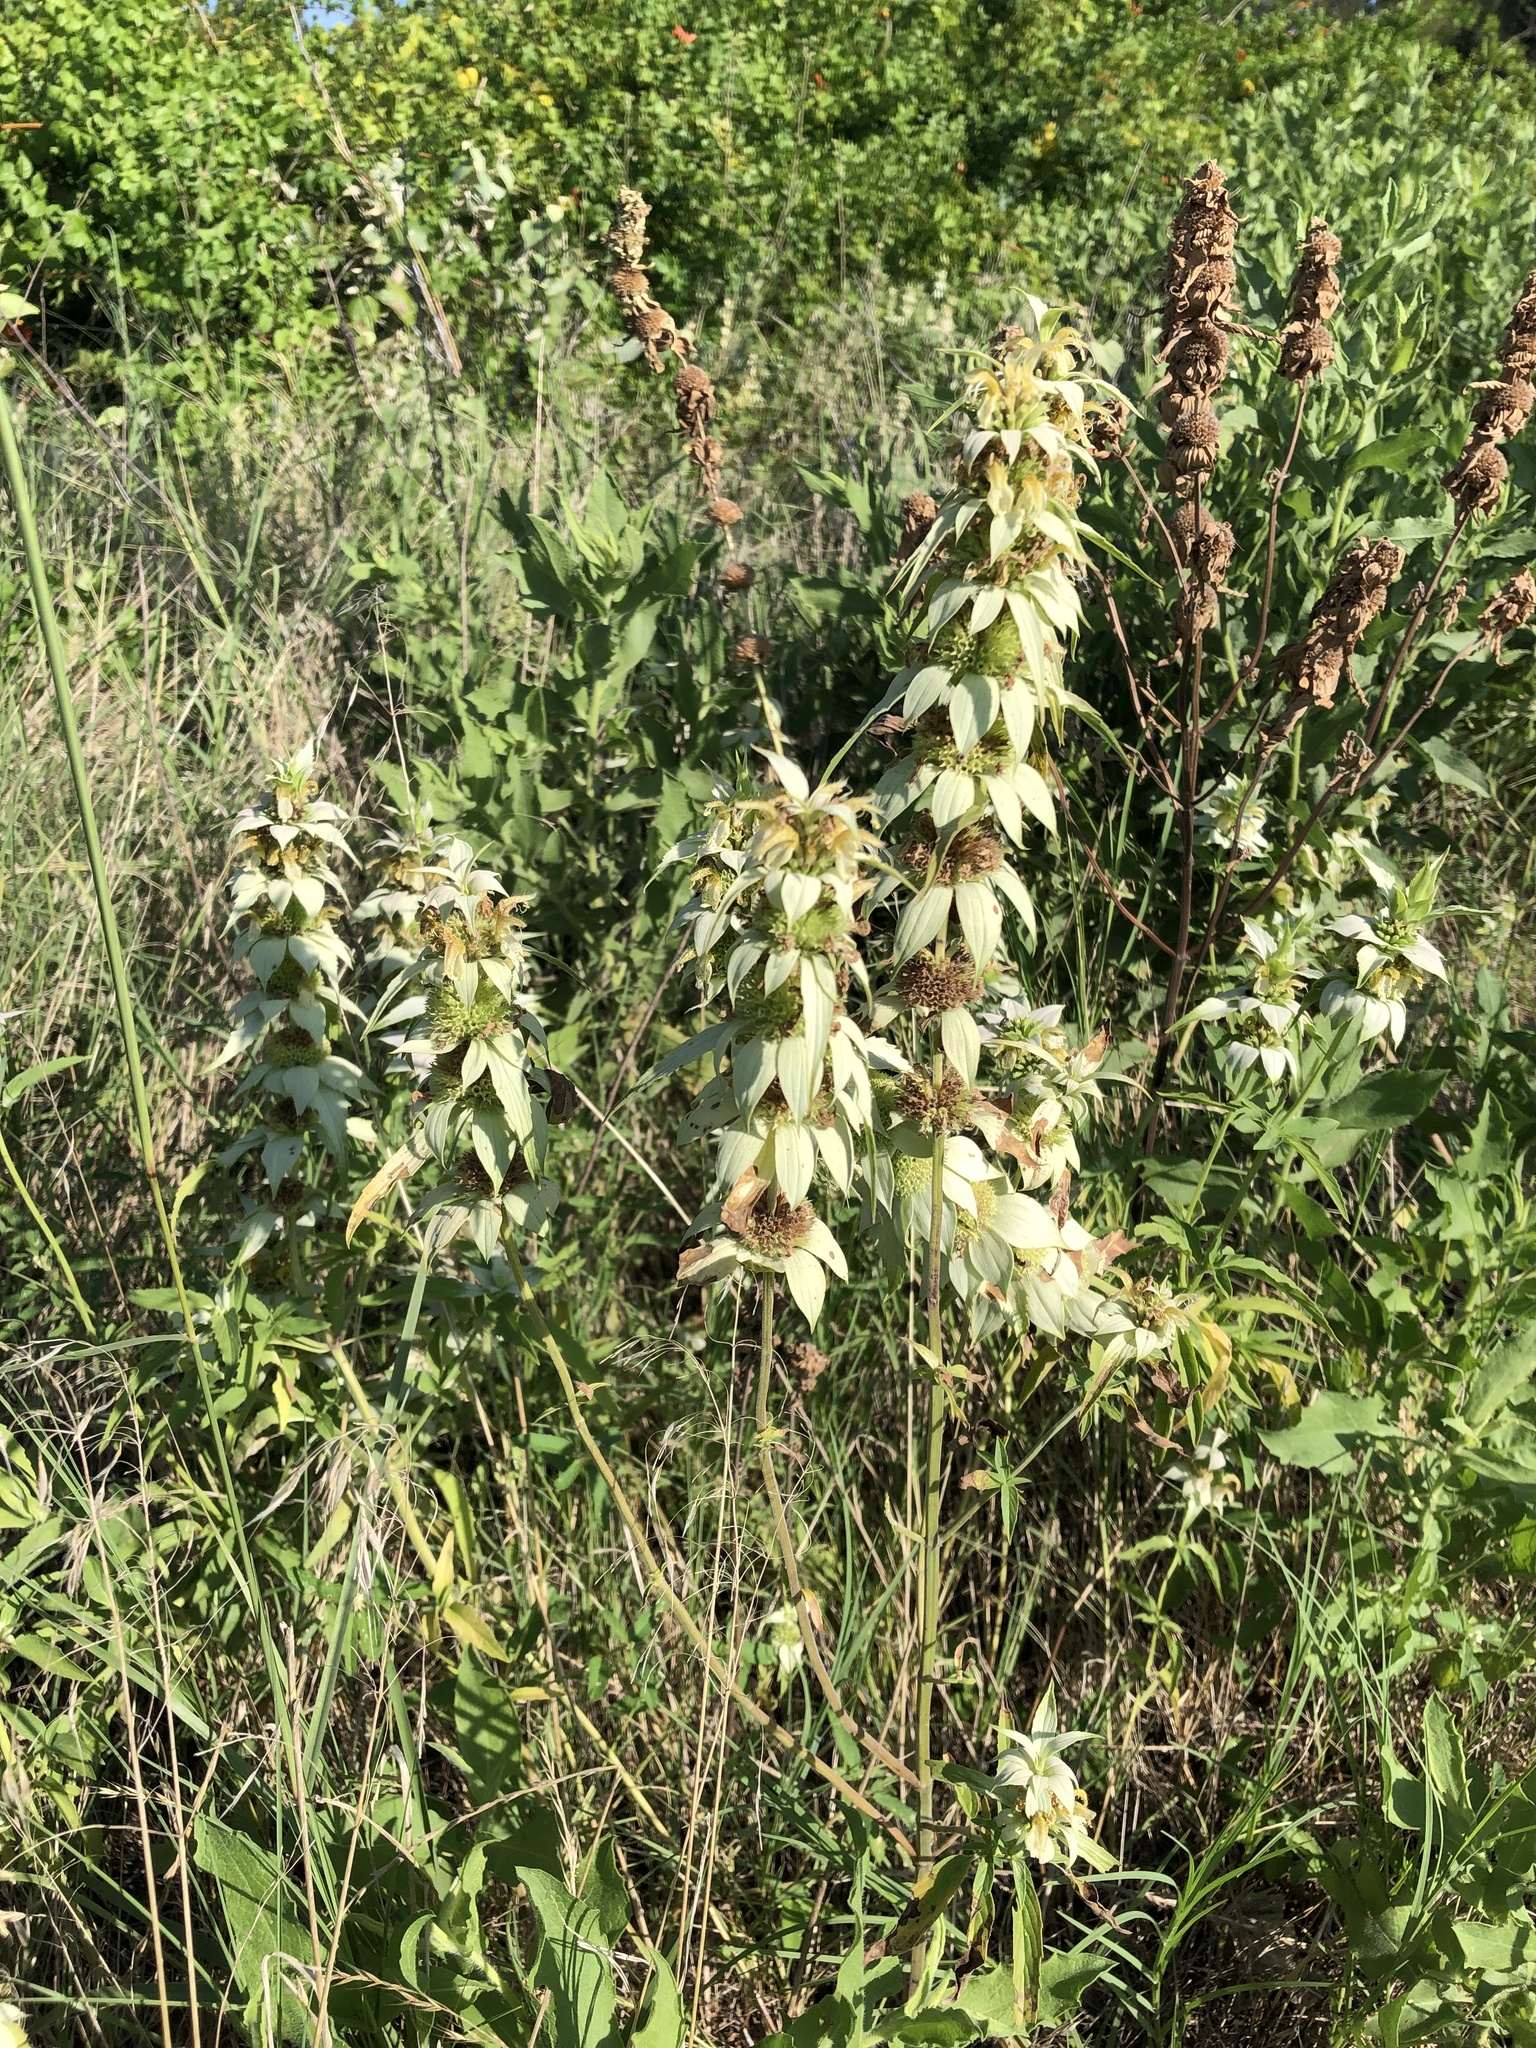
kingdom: Plantae
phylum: Tracheophyta
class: Magnoliopsida
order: Lamiales
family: Lamiaceae
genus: Monarda
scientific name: Monarda punctata
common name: Dotted monarda
